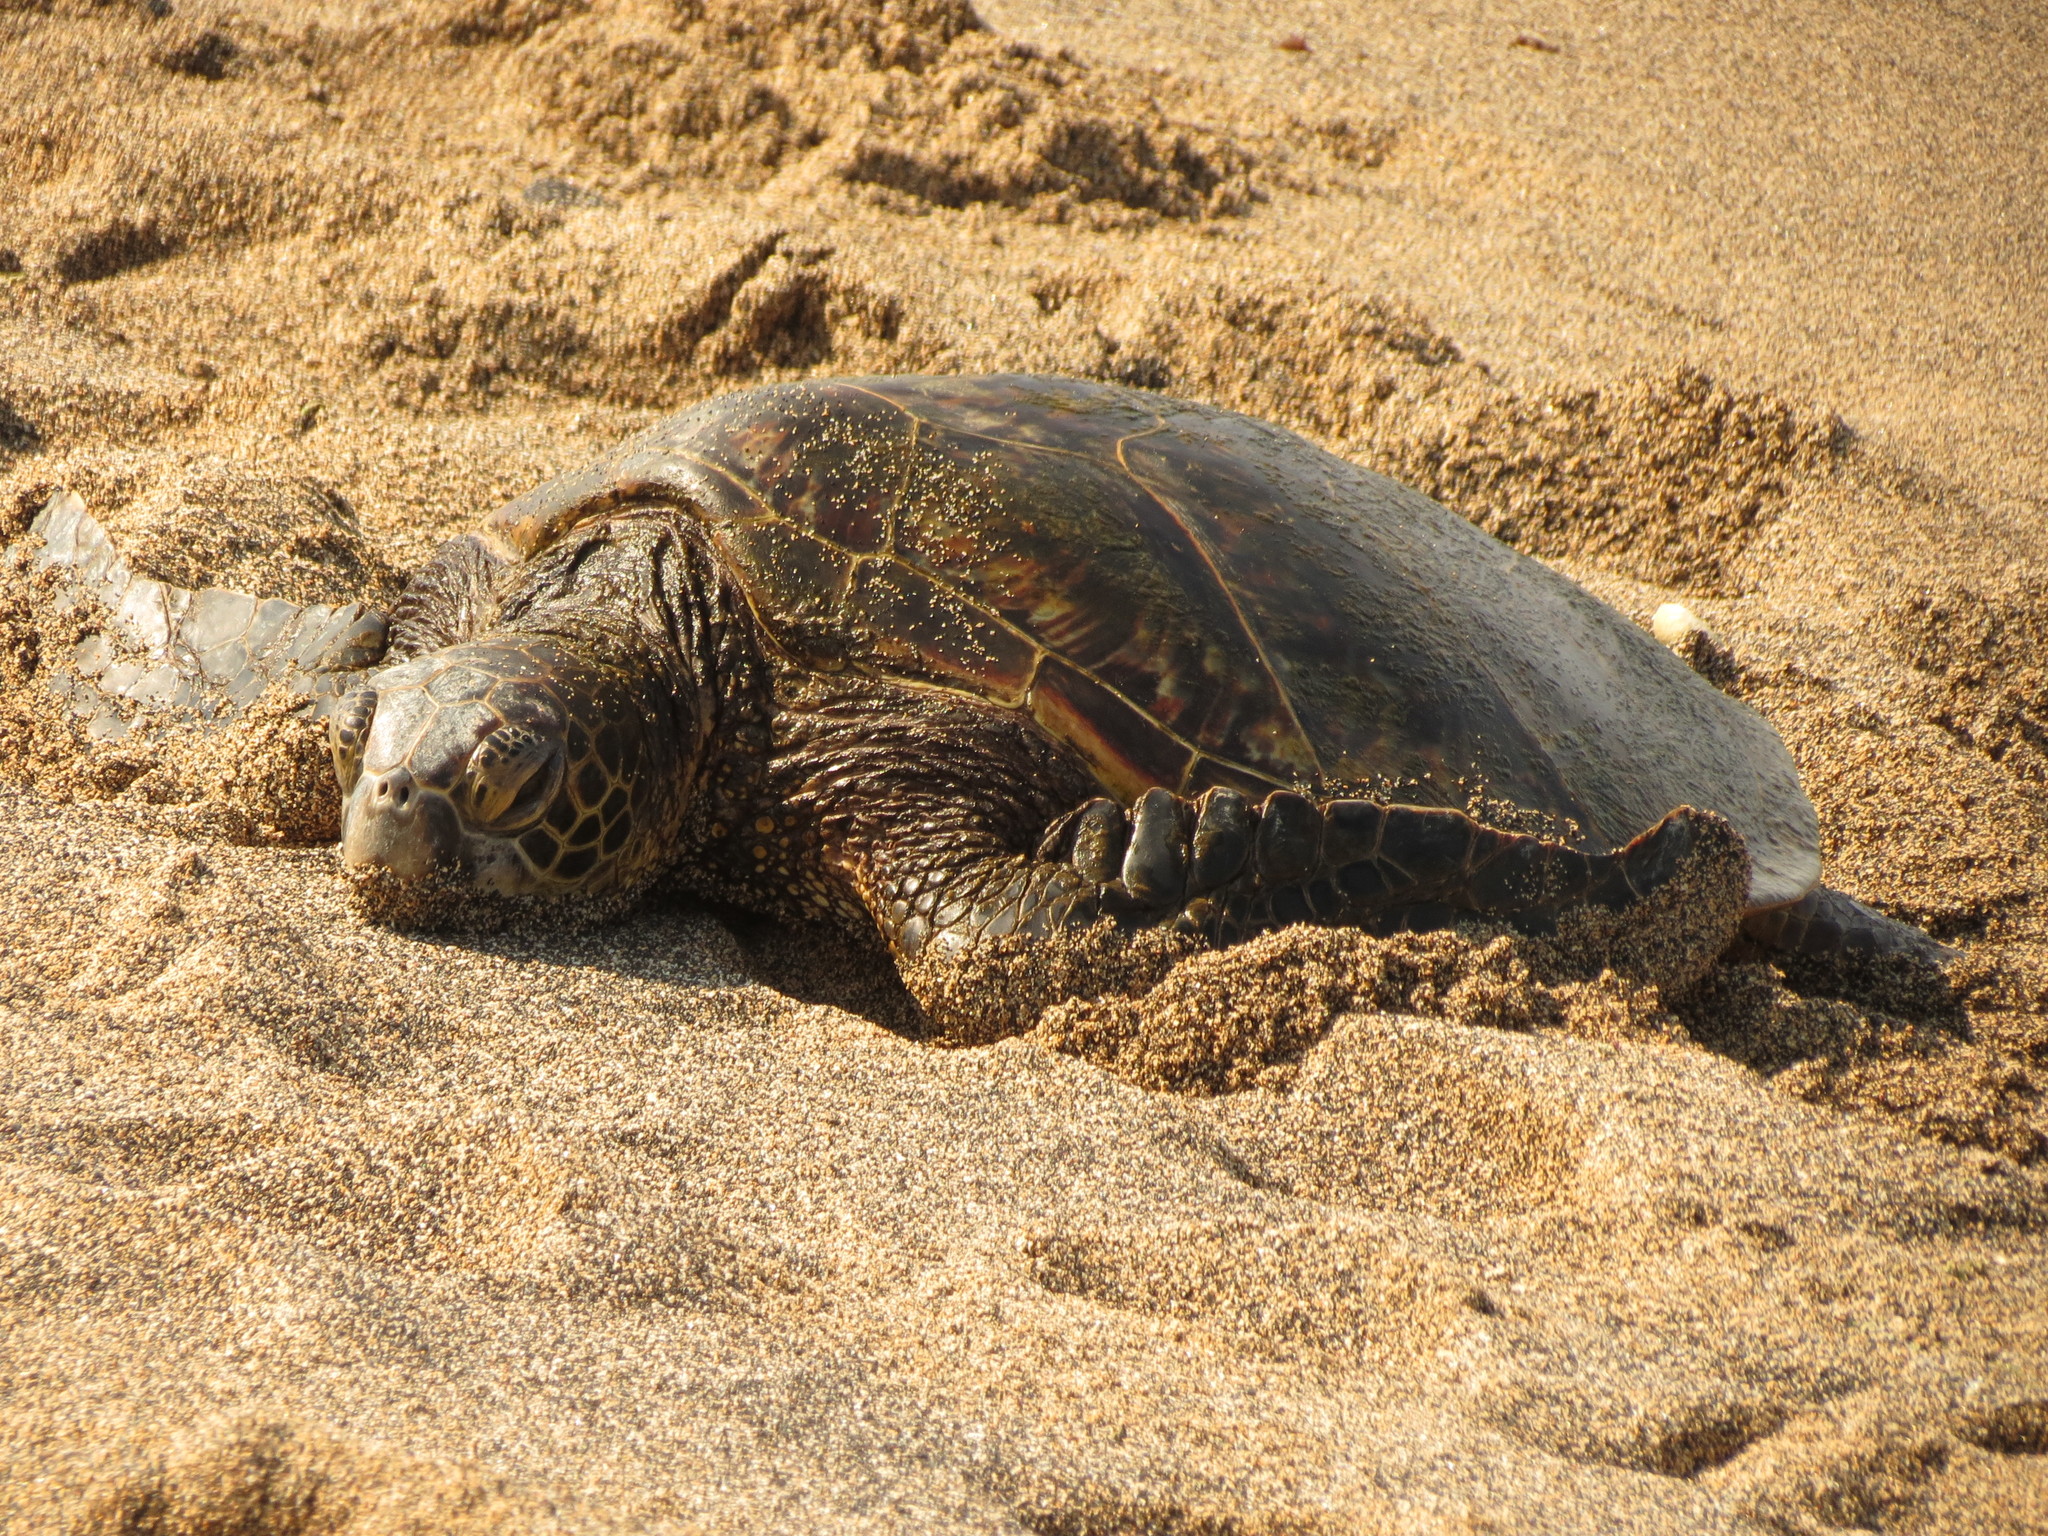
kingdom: Animalia
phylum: Chordata
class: Testudines
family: Cheloniidae
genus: Chelonia
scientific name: Chelonia mydas
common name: Green turtle
